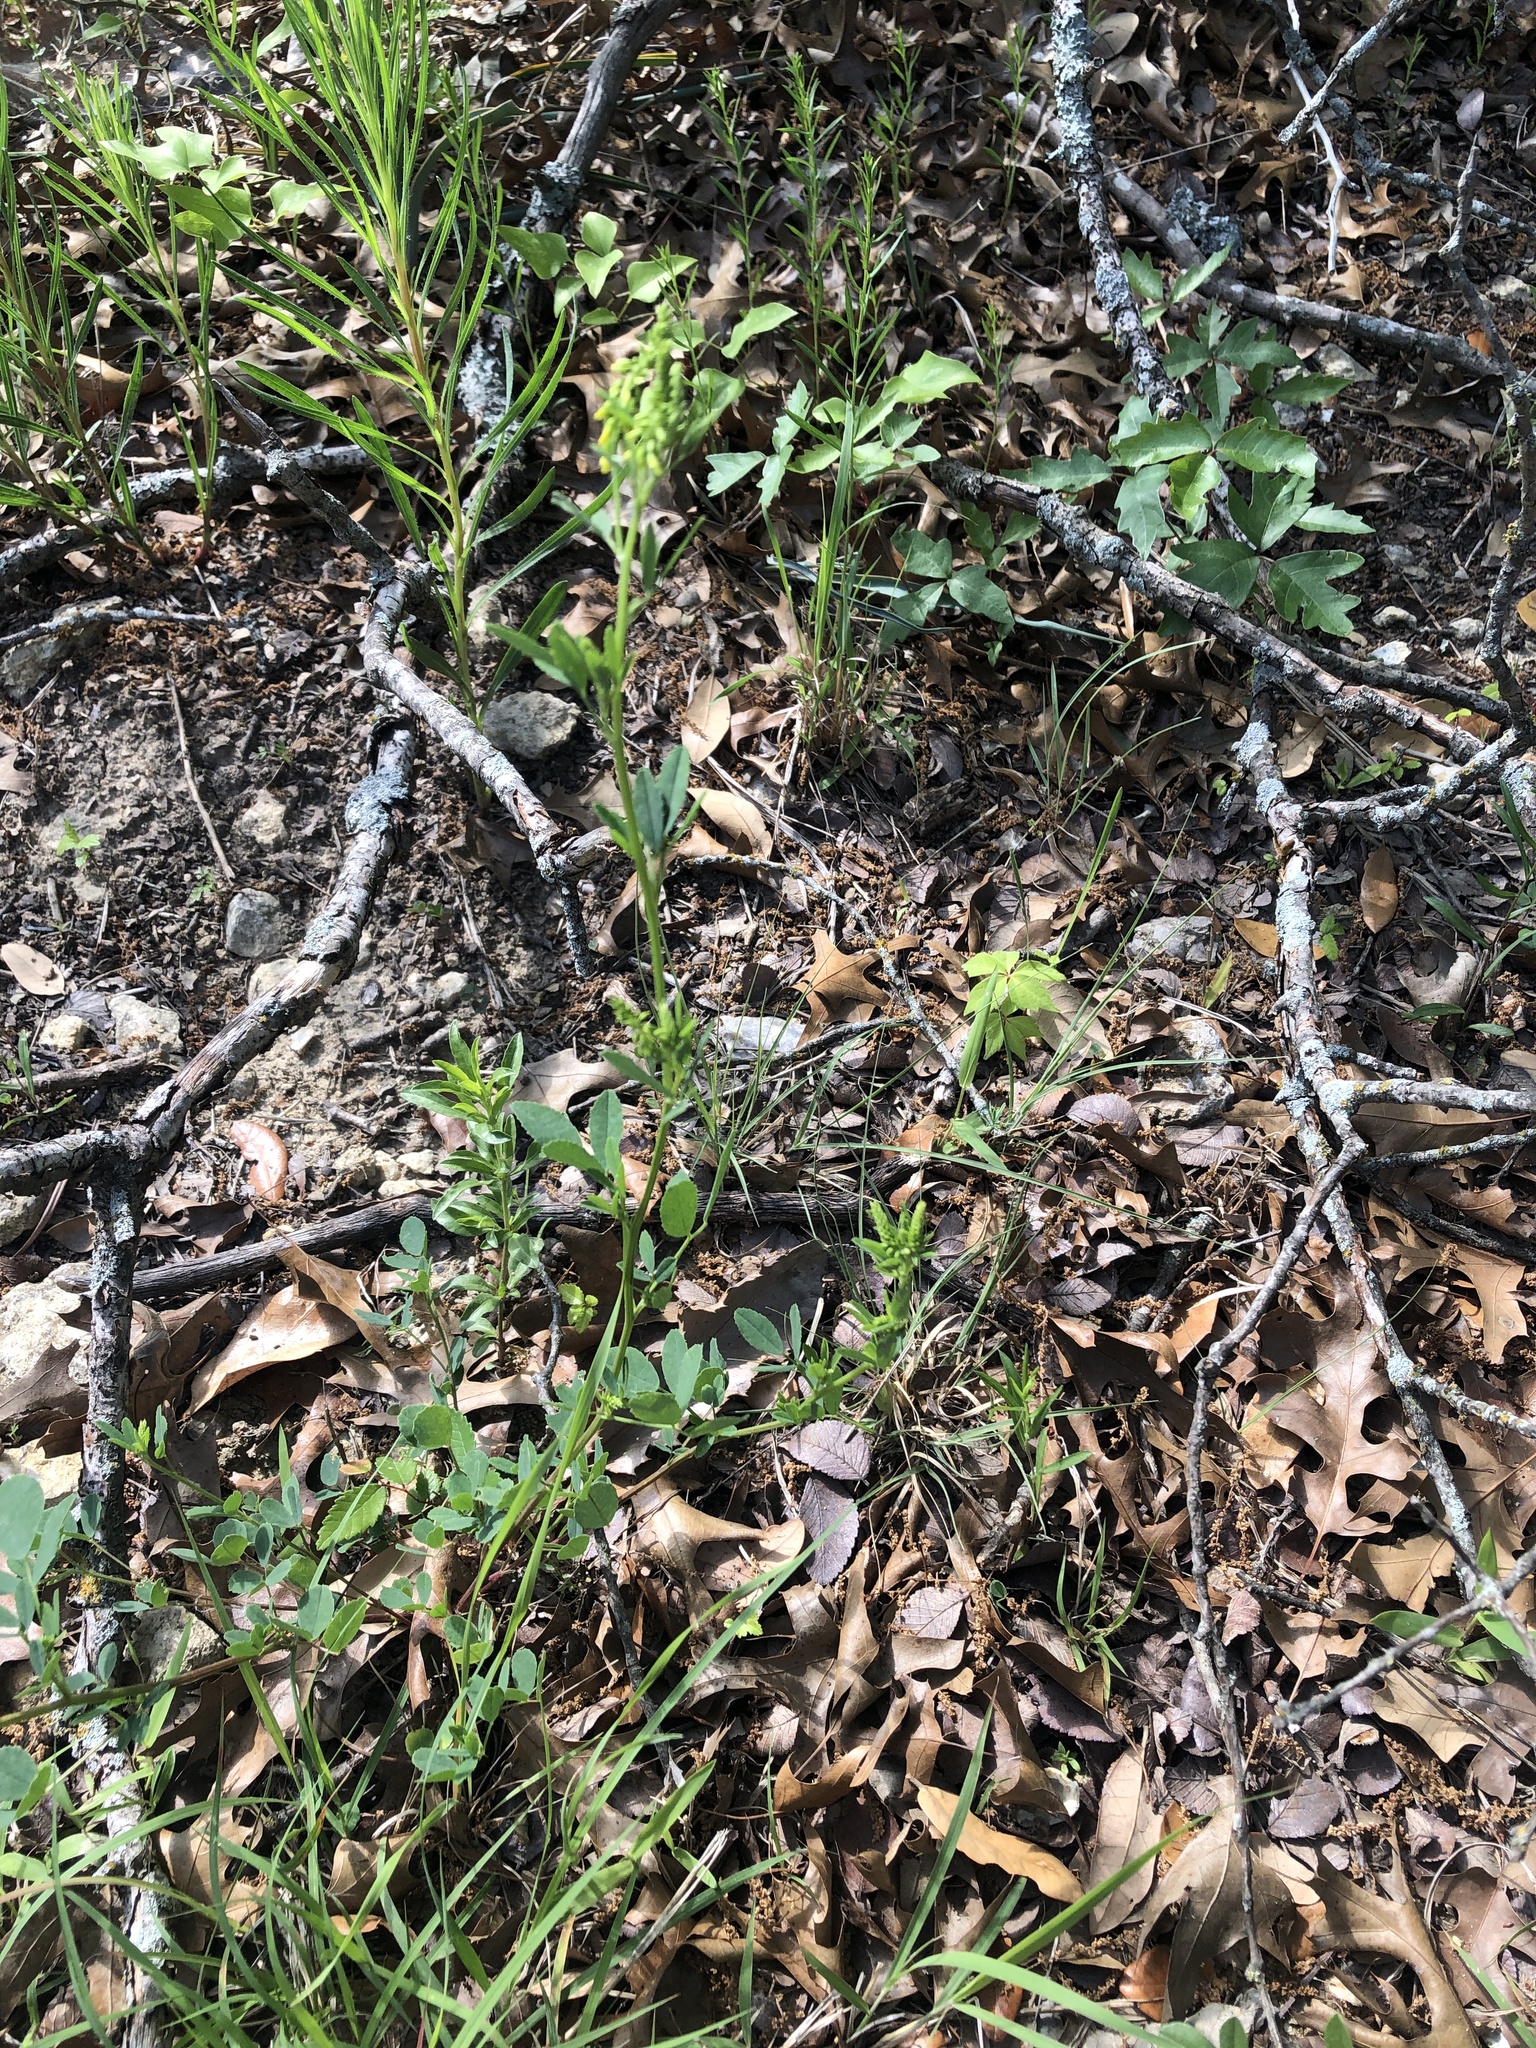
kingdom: Plantae
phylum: Tracheophyta
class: Magnoliopsida
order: Fabales
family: Fabaceae
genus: Melilotus
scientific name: Melilotus indicus
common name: Small melilot
